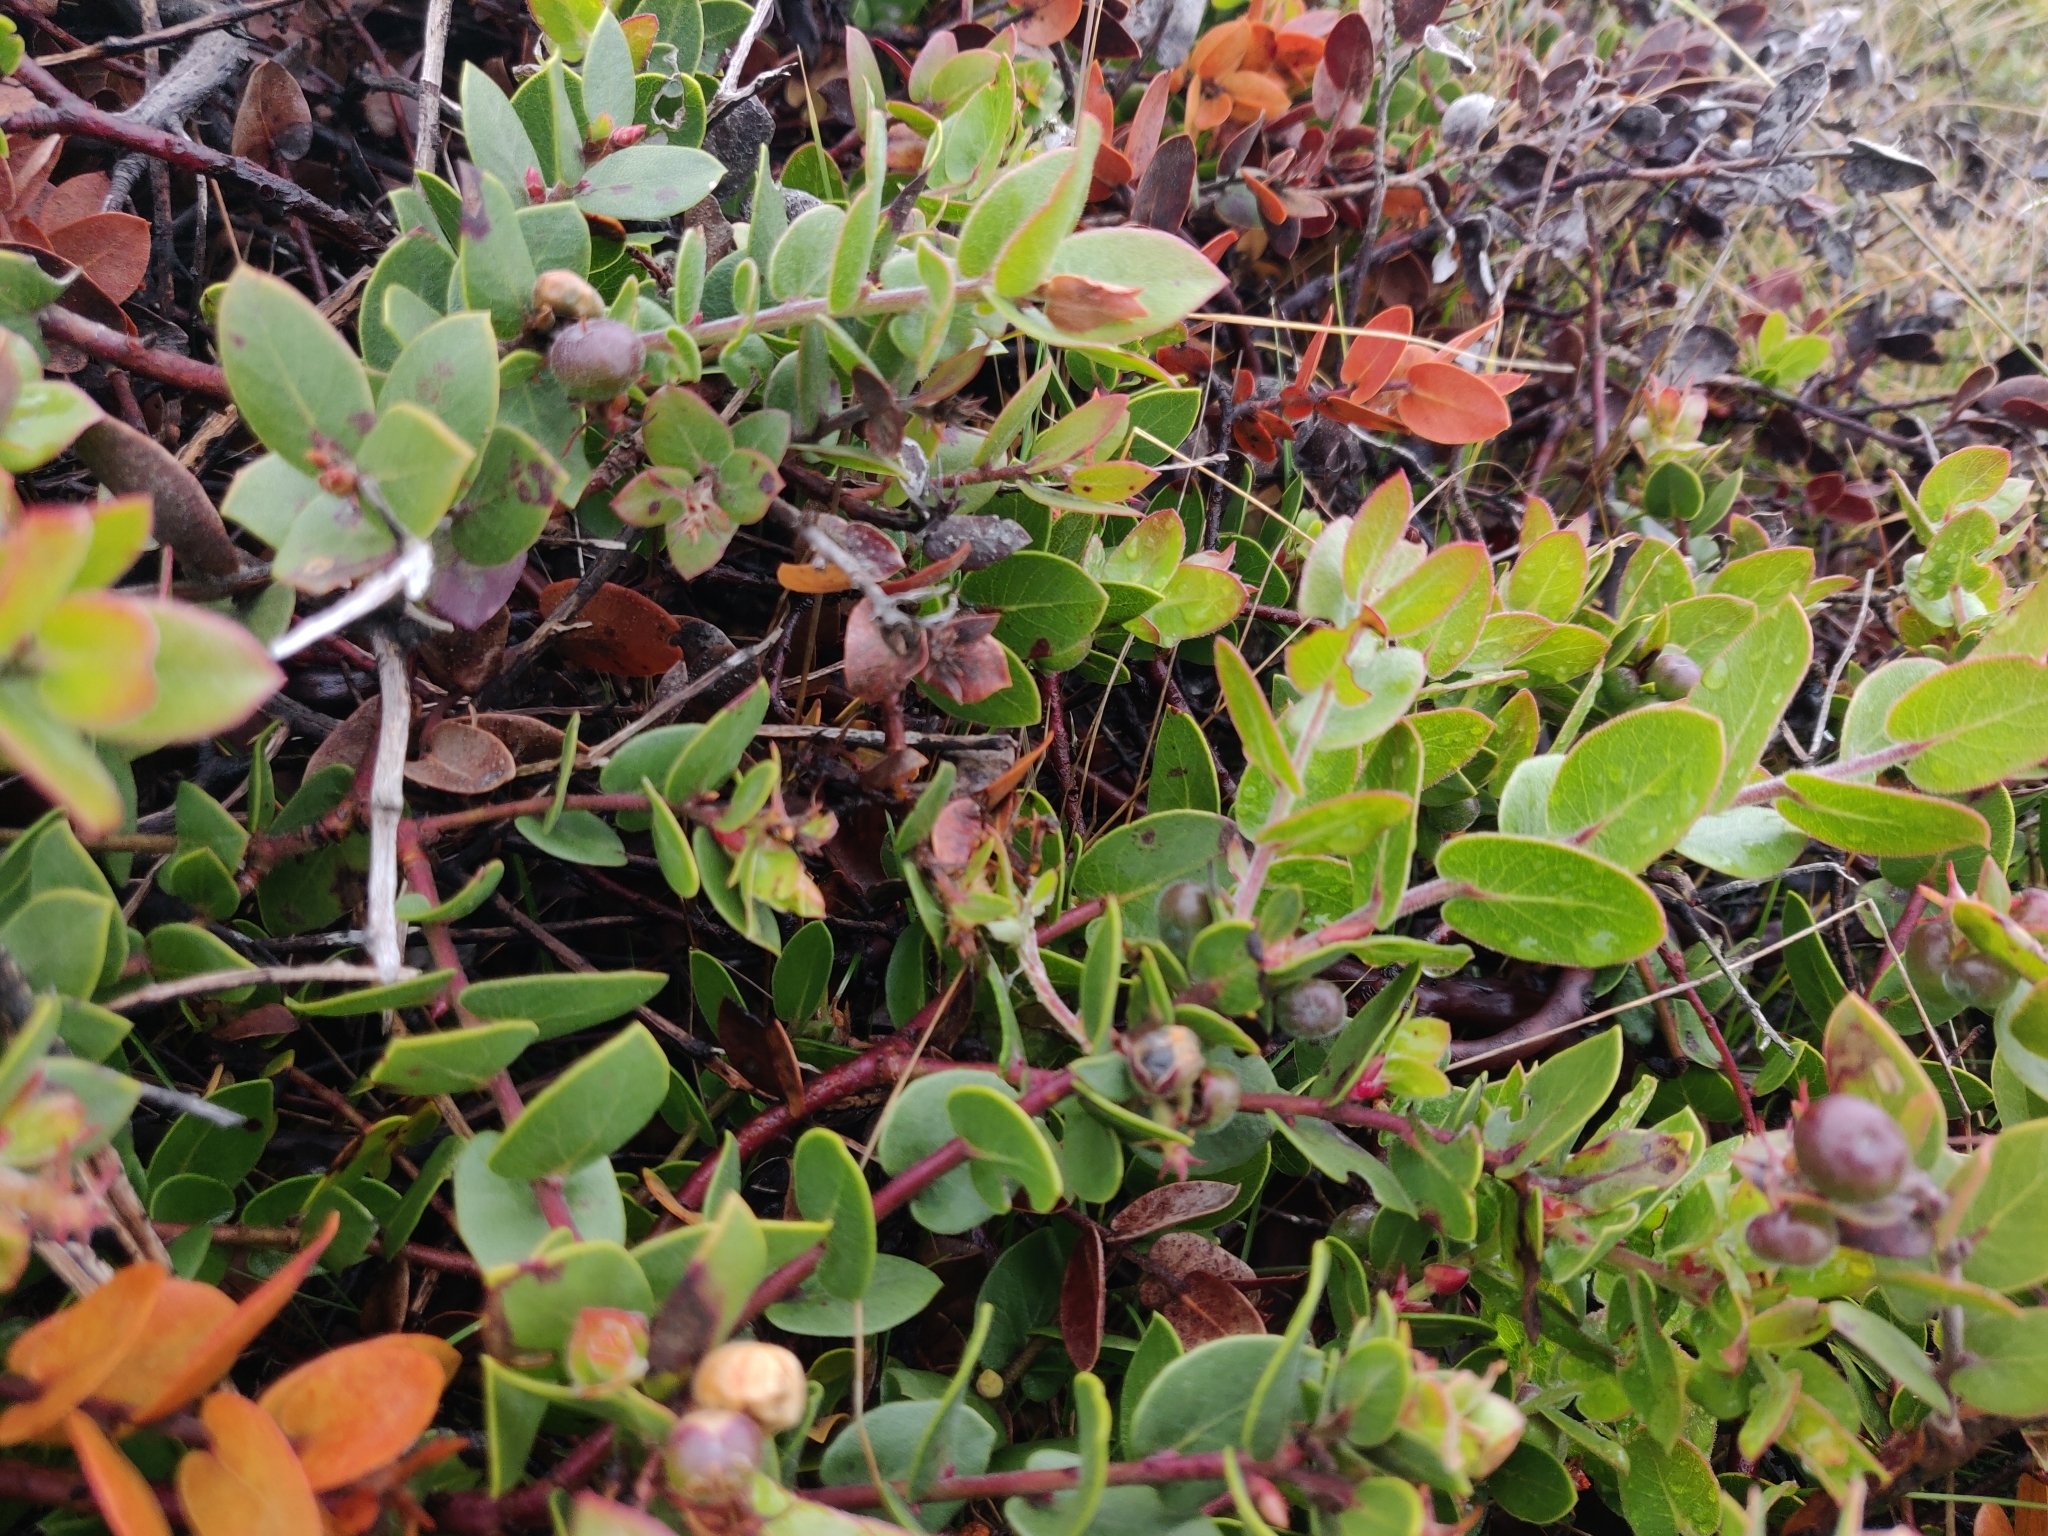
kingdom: Plantae
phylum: Tracheophyta
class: Magnoliopsida
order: Ericales
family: Ericaceae
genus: Arctostaphylos
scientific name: Arctostaphylos cruzensis
